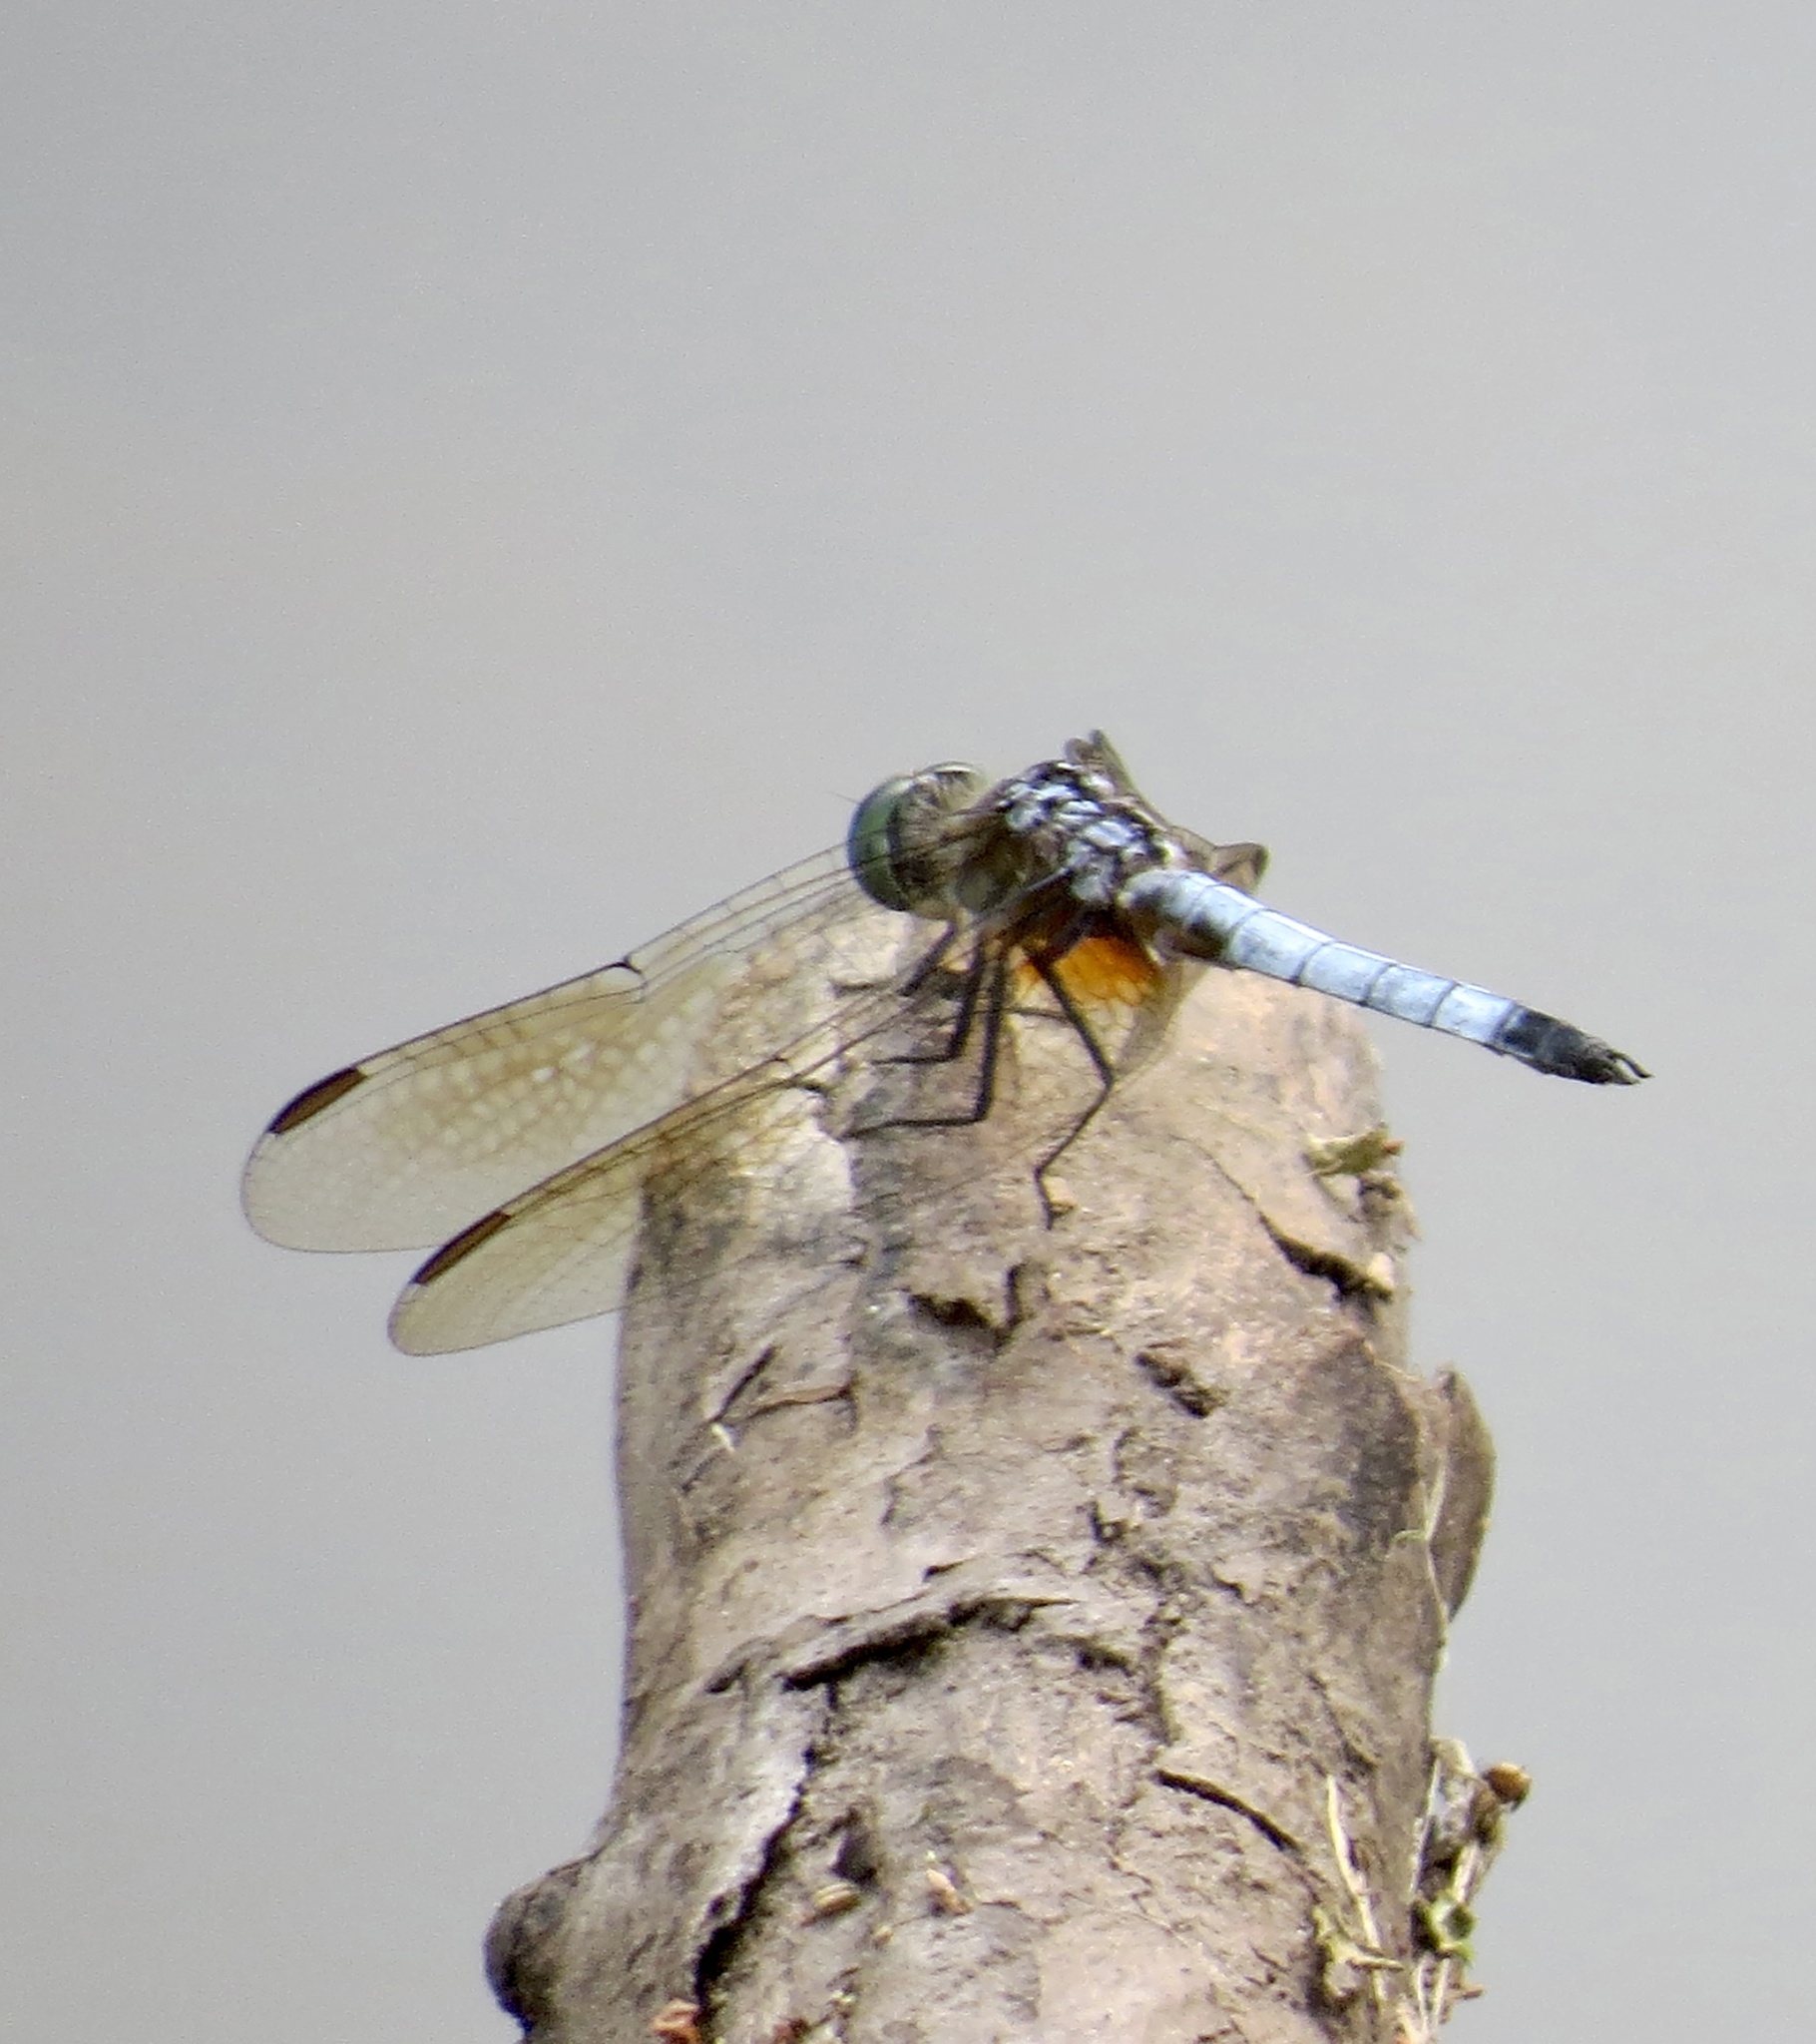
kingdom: Animalia
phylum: Arthropoda
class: Insecta
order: Odonata
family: Libellulidae
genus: Pachydiplax
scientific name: Pachydiplax longipennis
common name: Blue dasher
